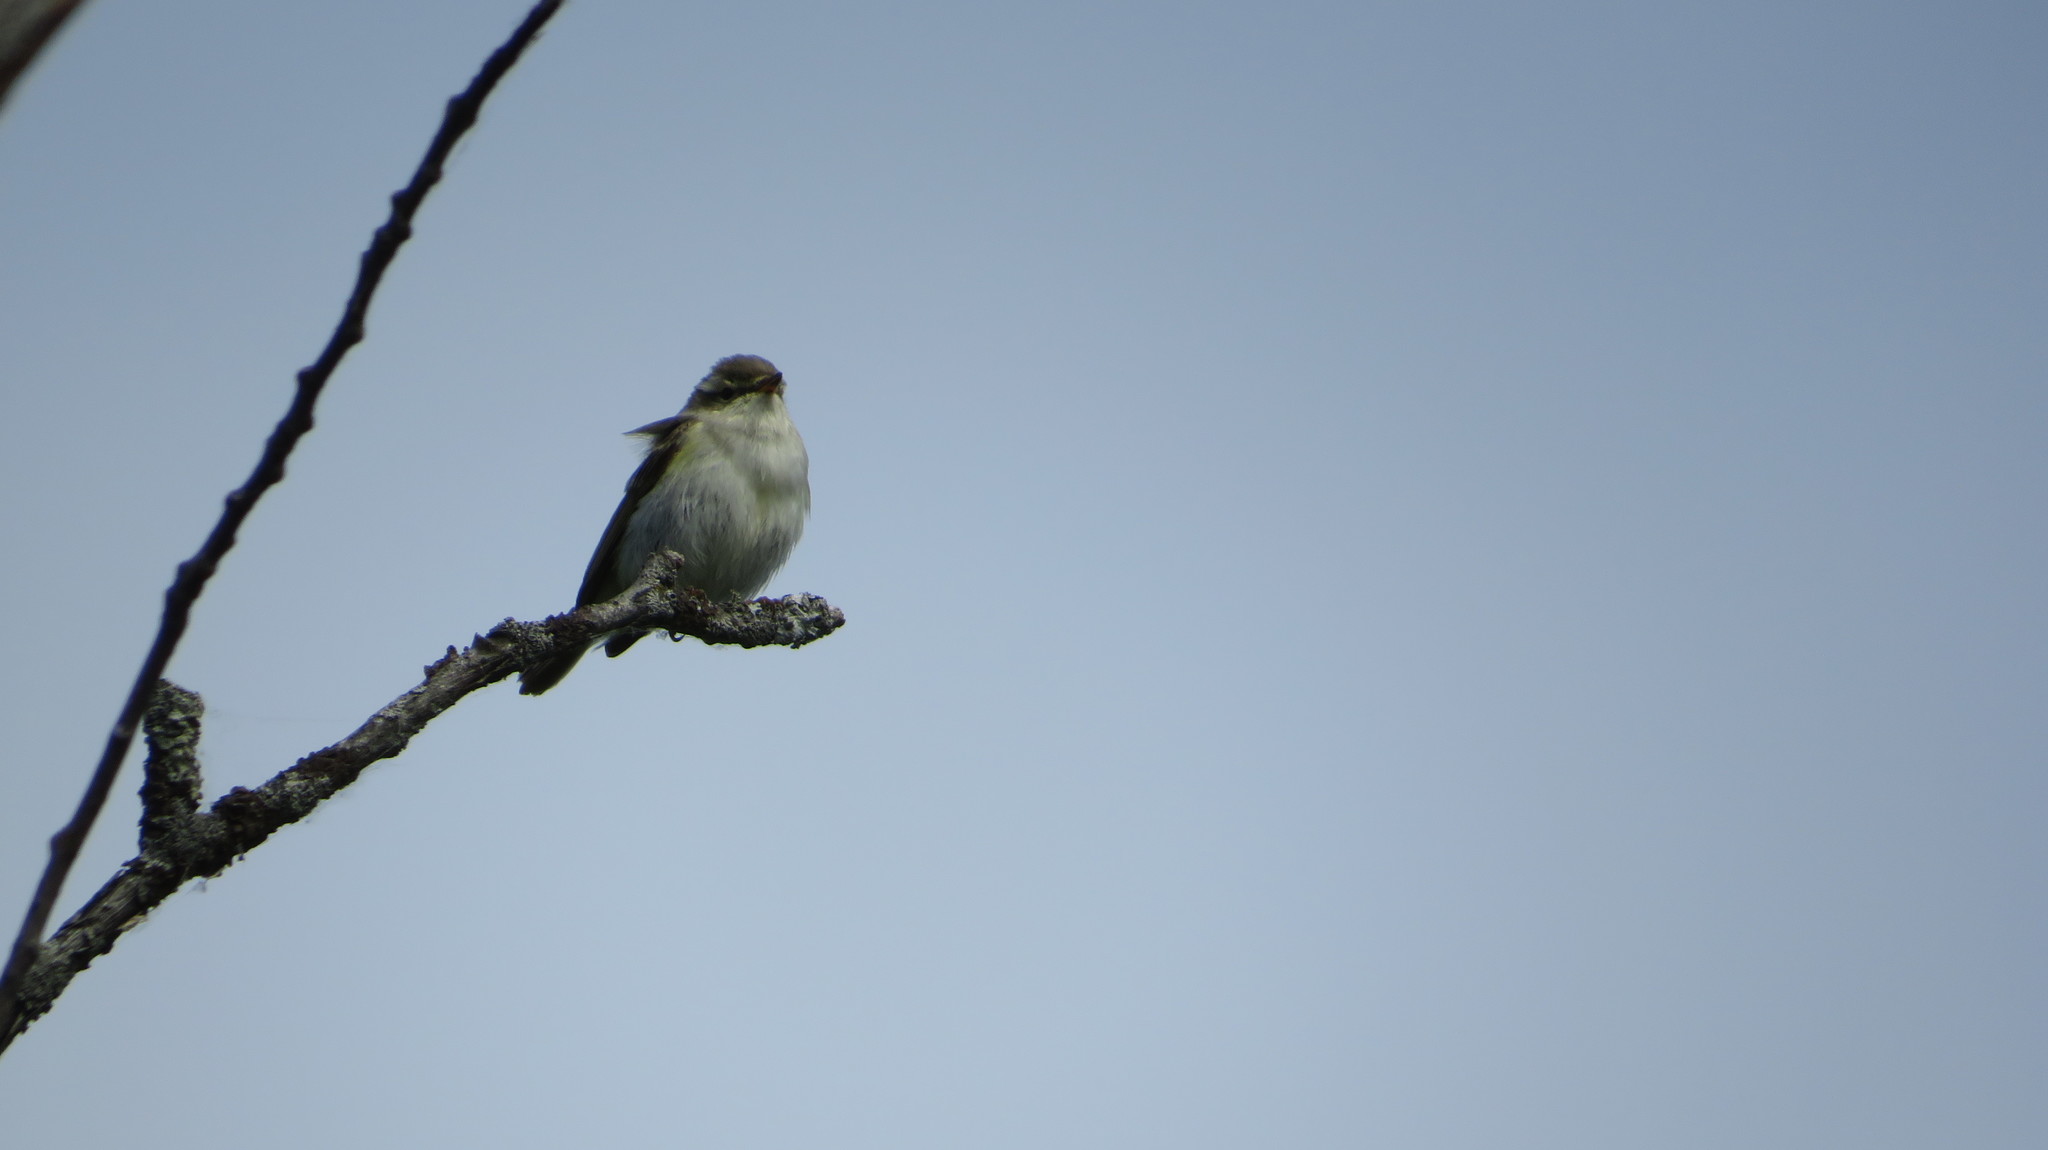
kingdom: Animalia
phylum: Chordata
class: Aves
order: Passeriformes
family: Phylloscopidae
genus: Phylloscopus
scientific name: Phylloscopus trochiloides
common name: Greenish warbler
